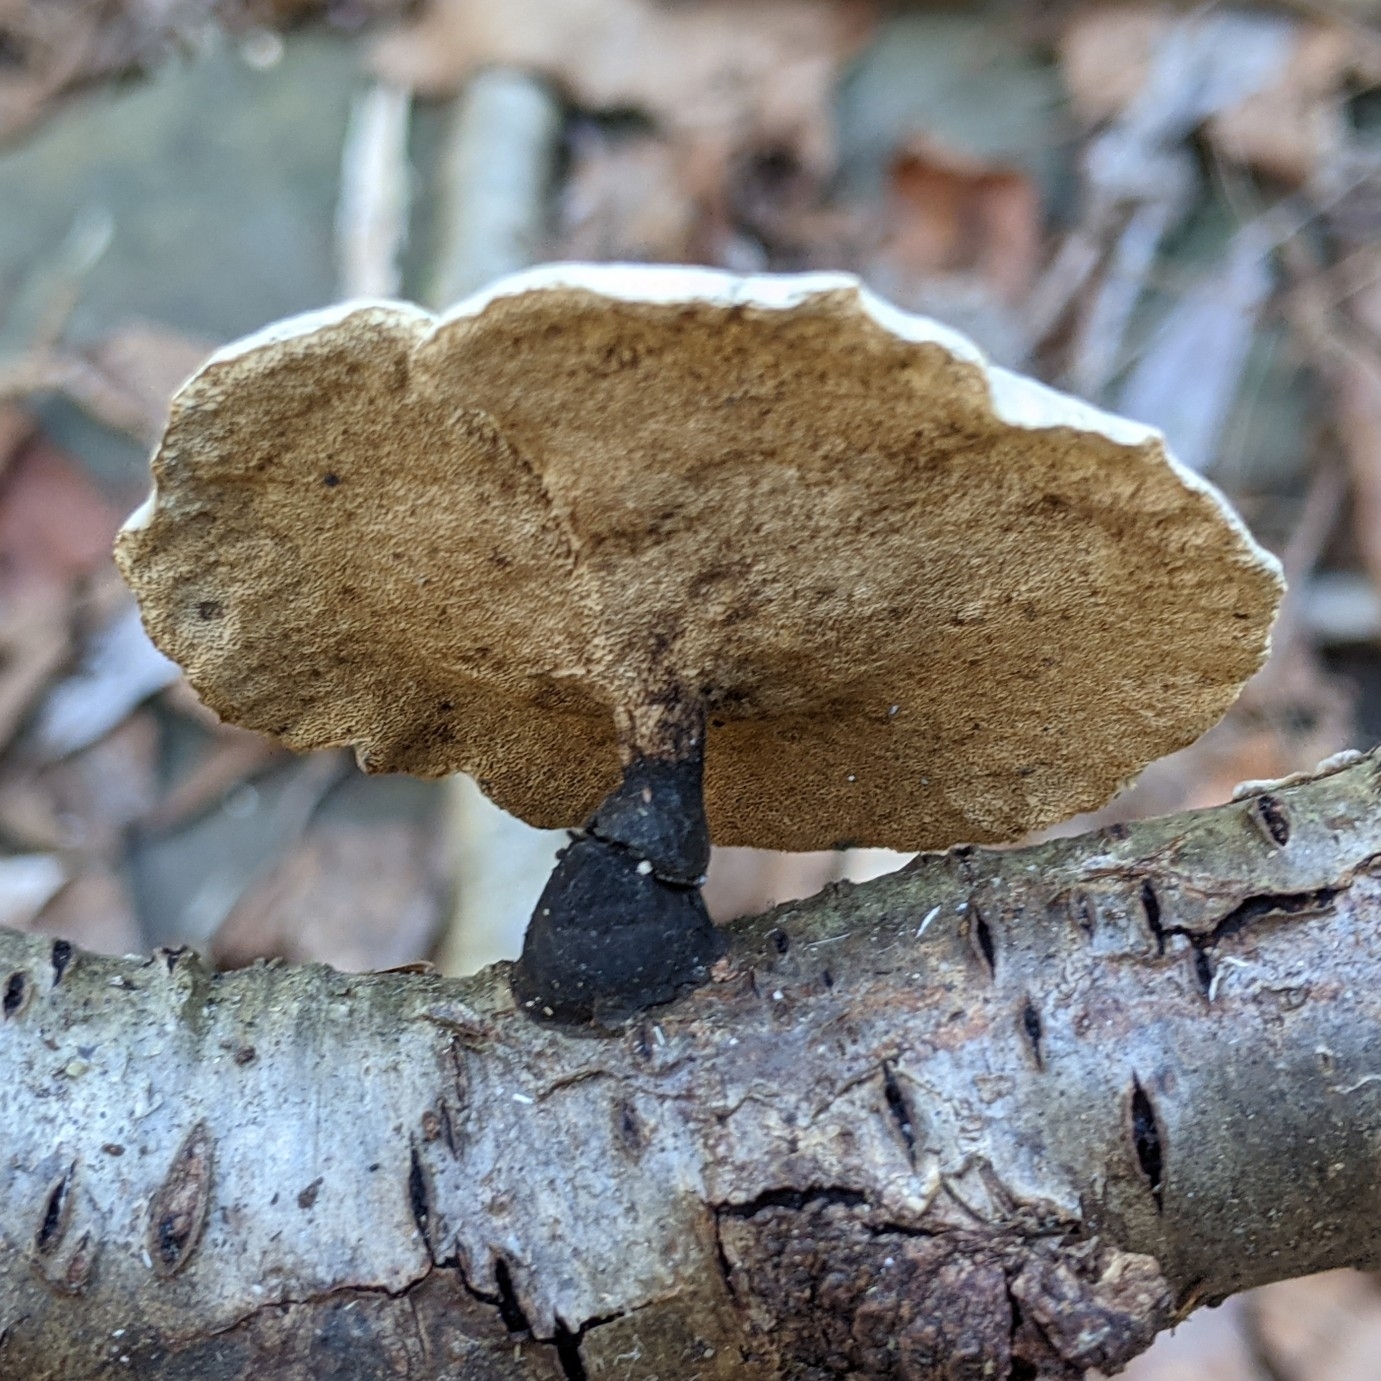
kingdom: Fungi
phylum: Basidiomycota
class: Agaricomycetes
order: Polyporales
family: Polyporaceae
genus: Cerioporus
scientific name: Cerioporus varius
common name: Elegant polypore
